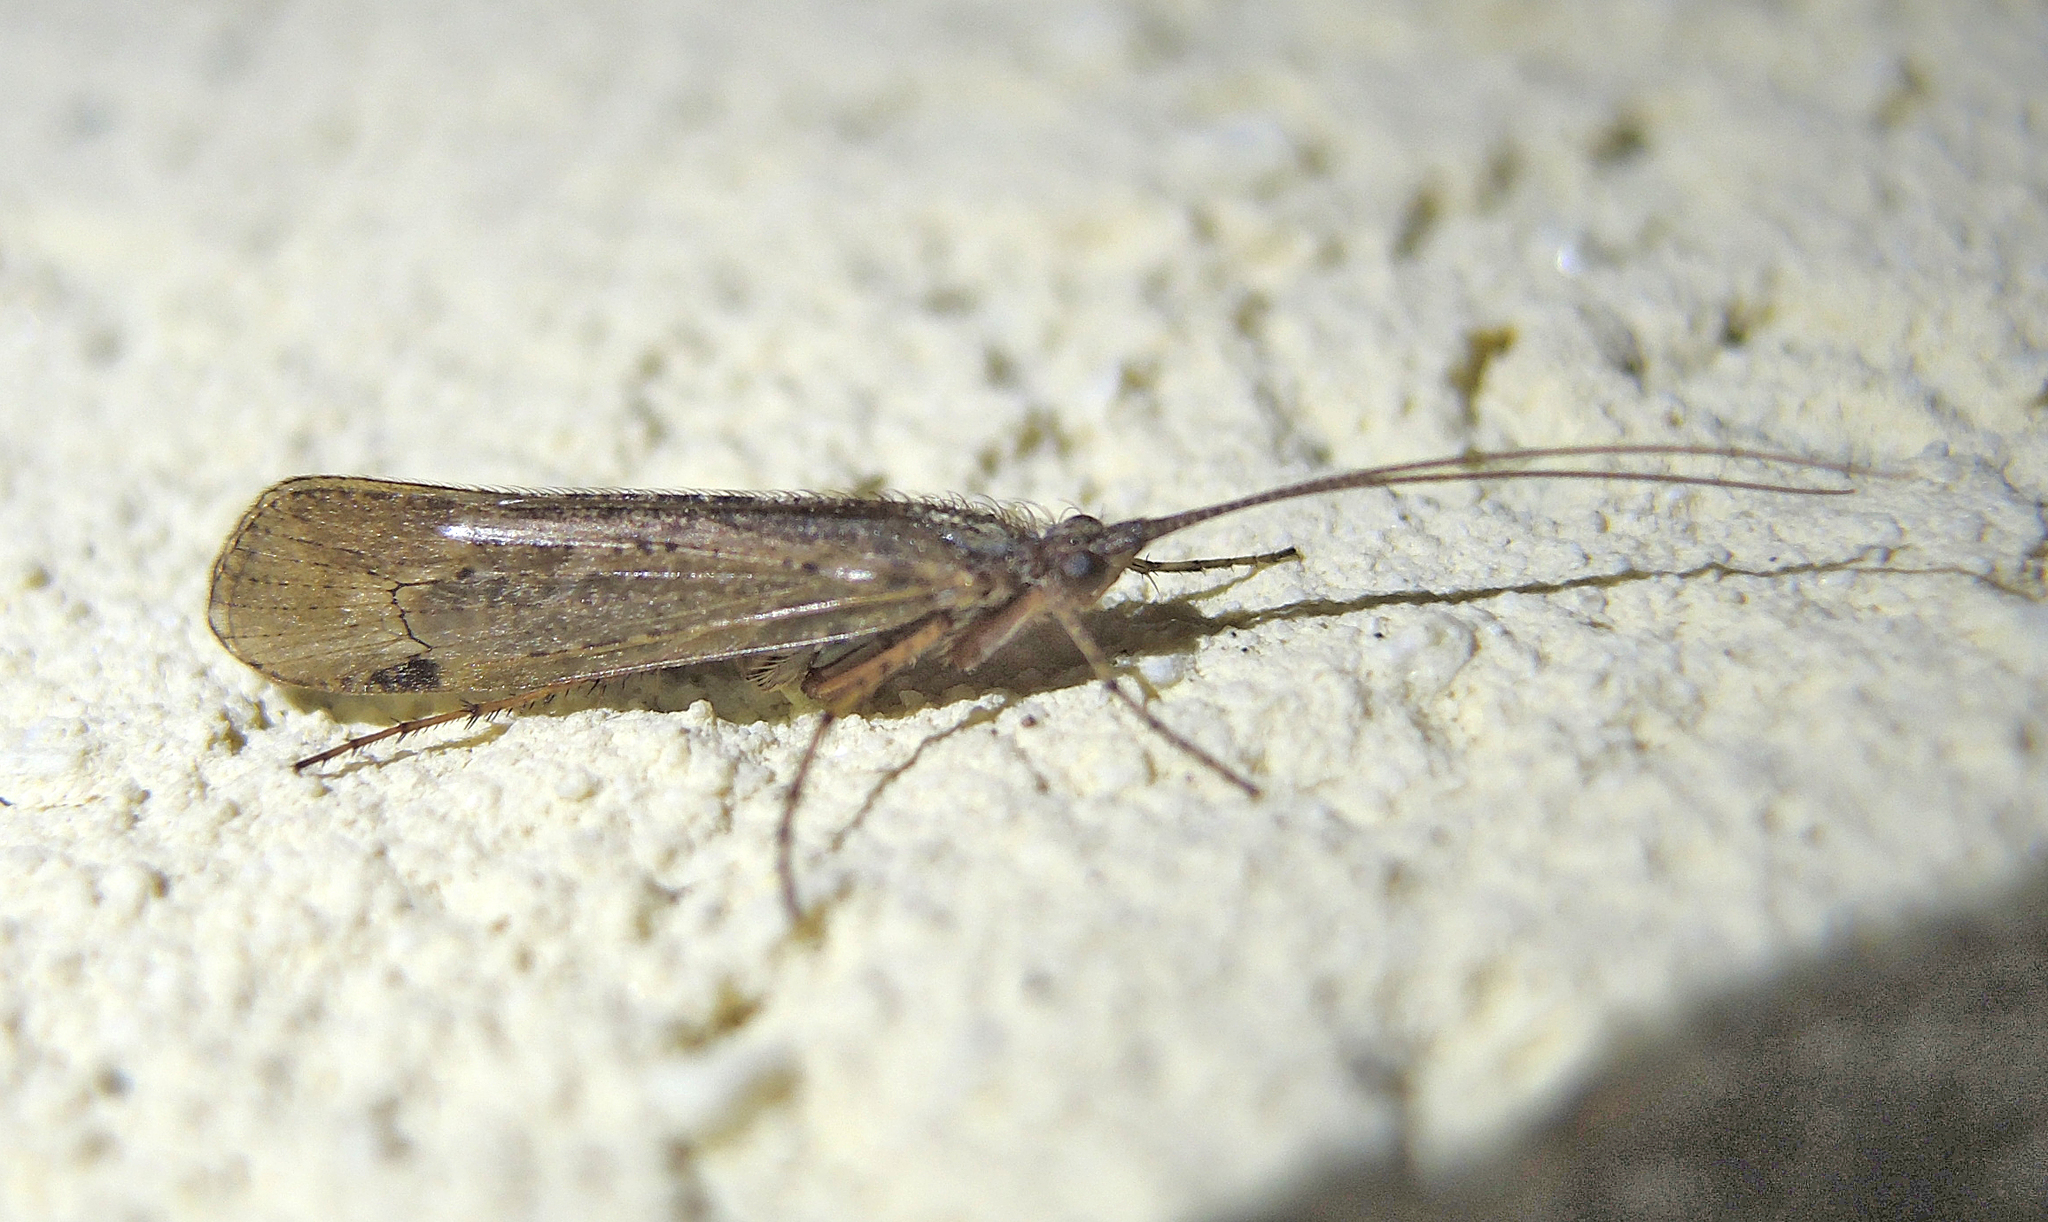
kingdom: Animalia
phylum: Arthropoda
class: Insecta
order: Trichoptera
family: Limnephilidae
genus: Limnephilus
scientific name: Limnephilus affinis
